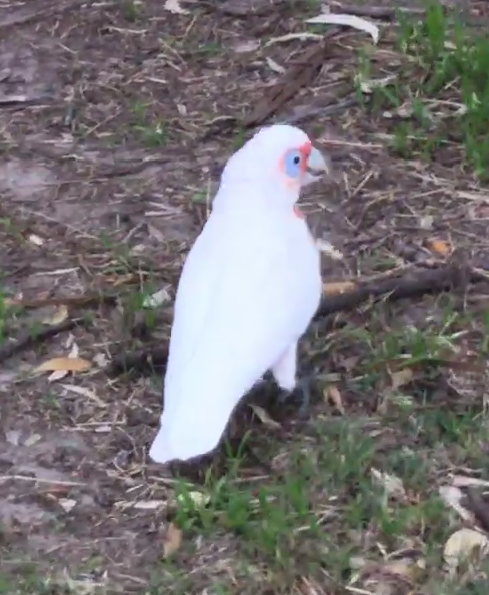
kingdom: Animalia
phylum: Chordata
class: Aves
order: Psittaciformes
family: Psittacidae
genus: Cacatua
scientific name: Cacatua tenuirostris
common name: Long-billed corella
